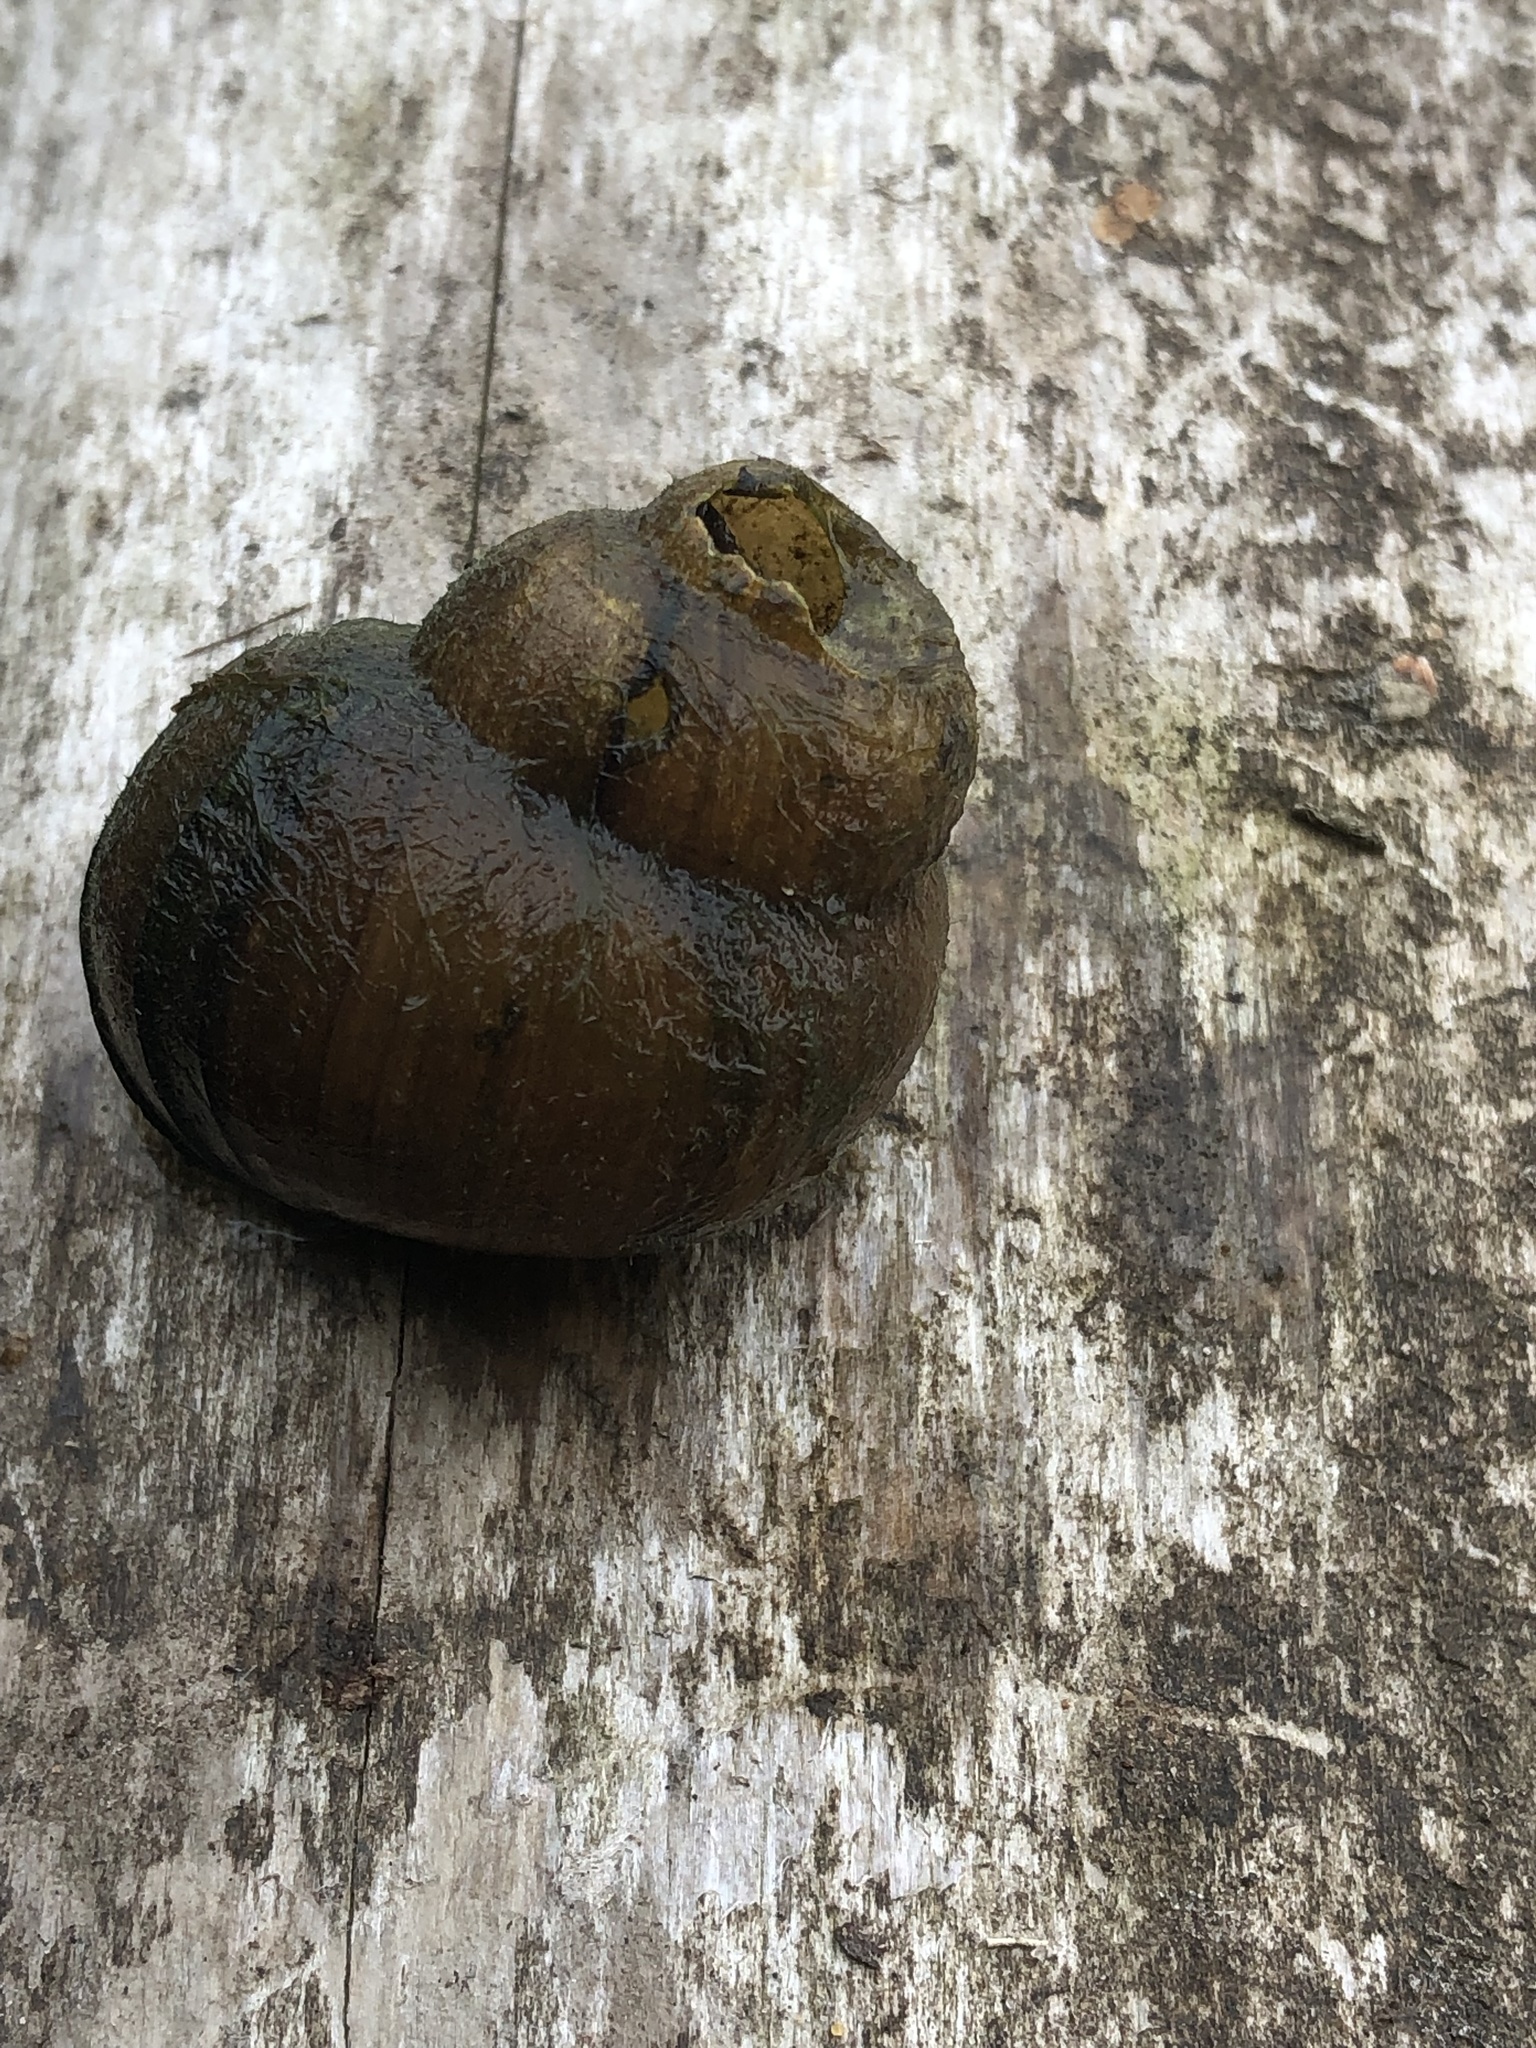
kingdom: Animalia
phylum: Mollusca
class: Gastropoda
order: Architaenioglossa
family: Viviparidae
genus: Cipangopaludina
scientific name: Cipangopaludina chinensis
